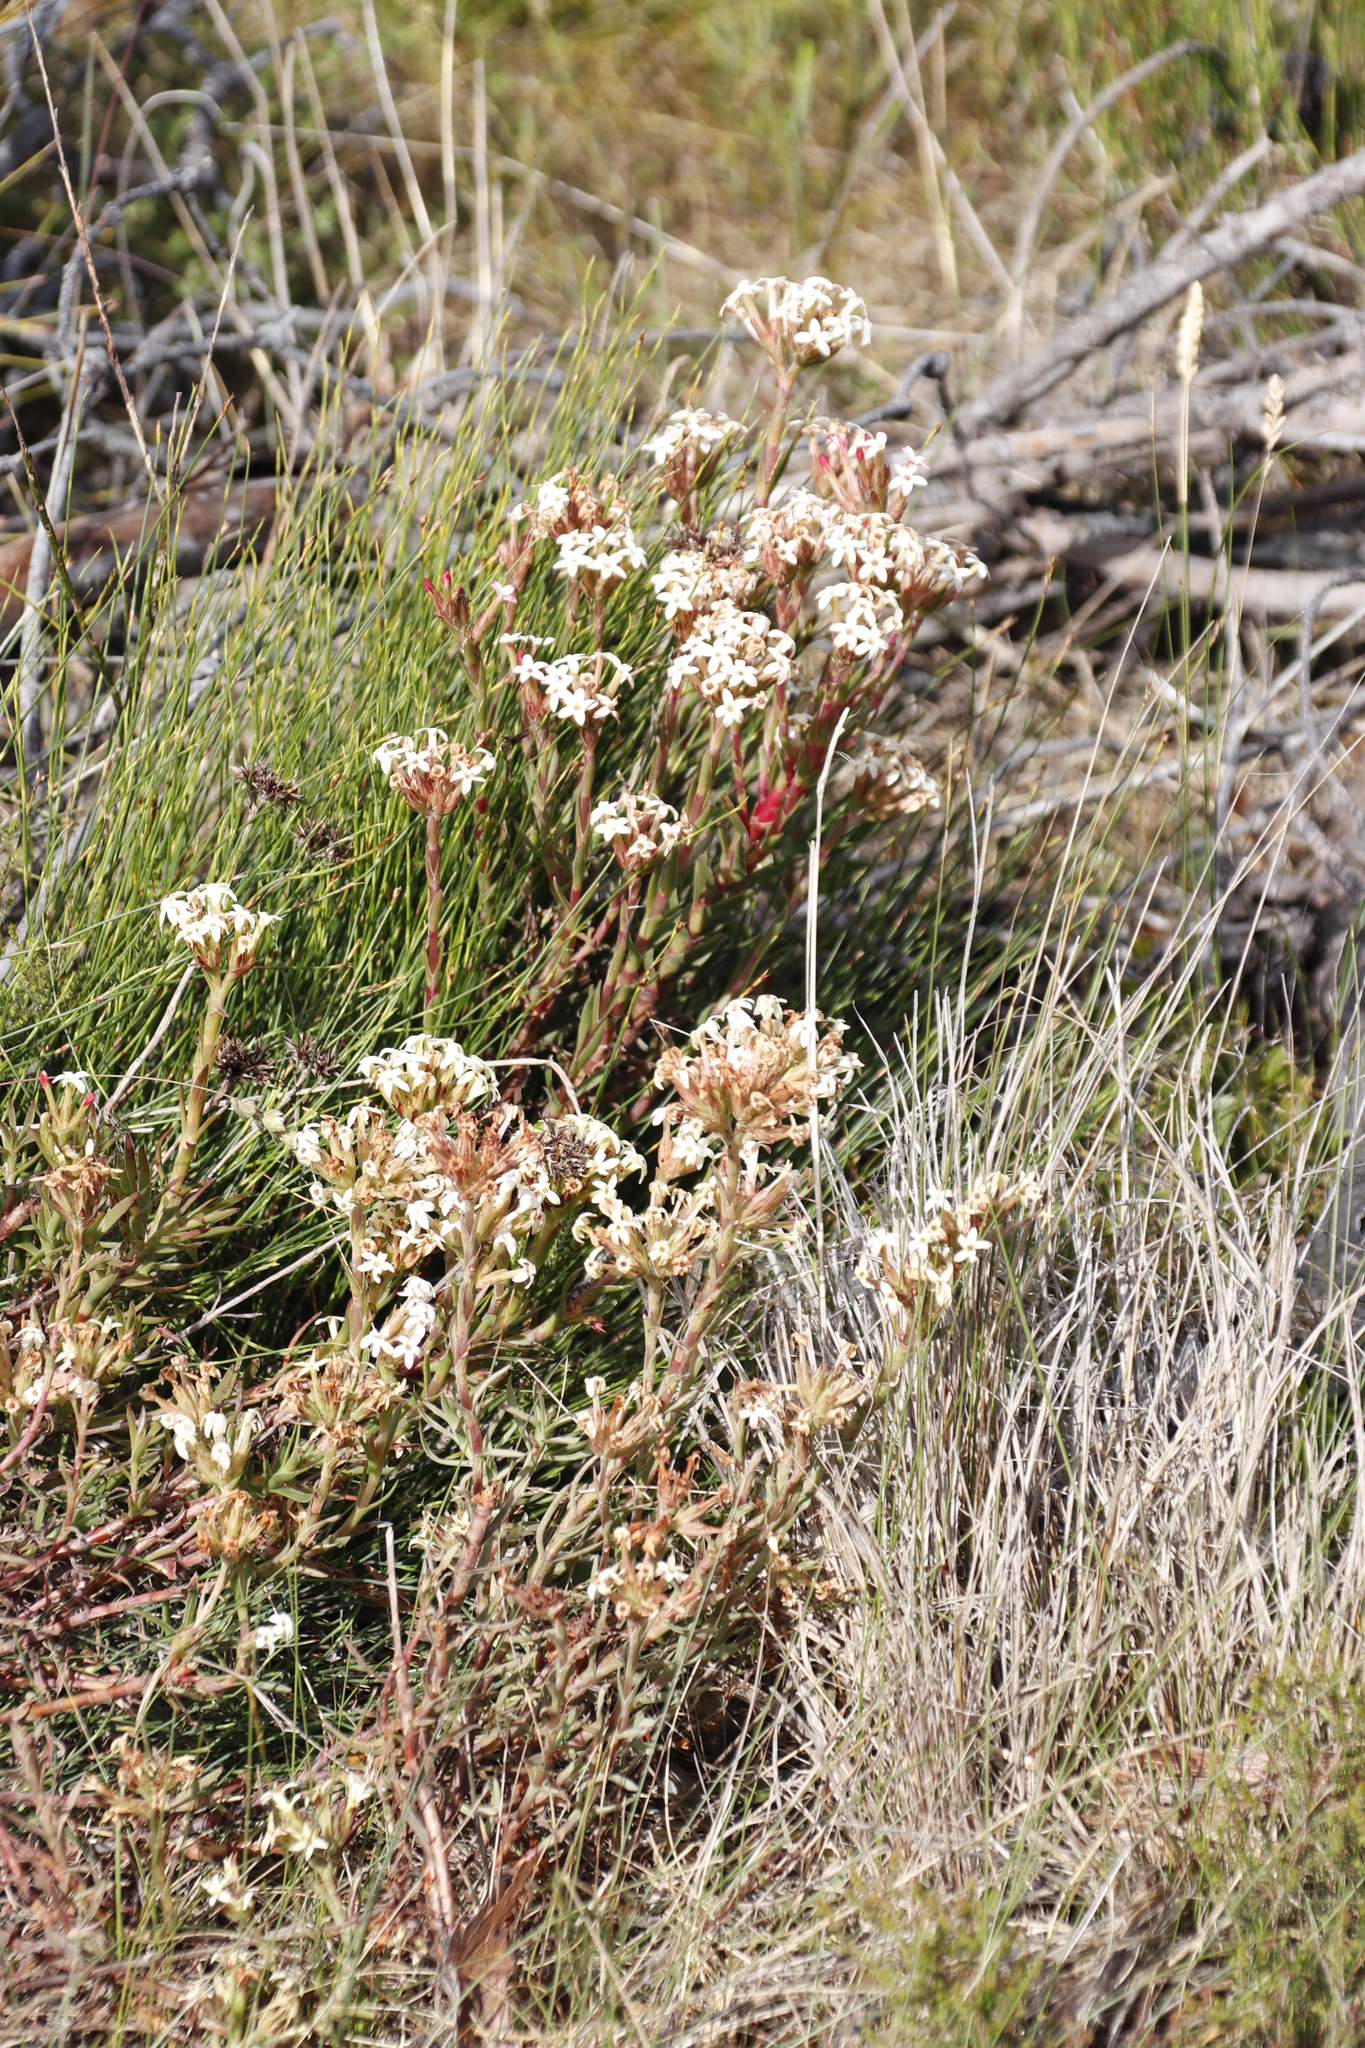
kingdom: Plantae
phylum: Tracheophyta
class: Magnoliopsida
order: Saxifragales
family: Crassulaceae
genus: Crassula
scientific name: Crassula fascicularis
